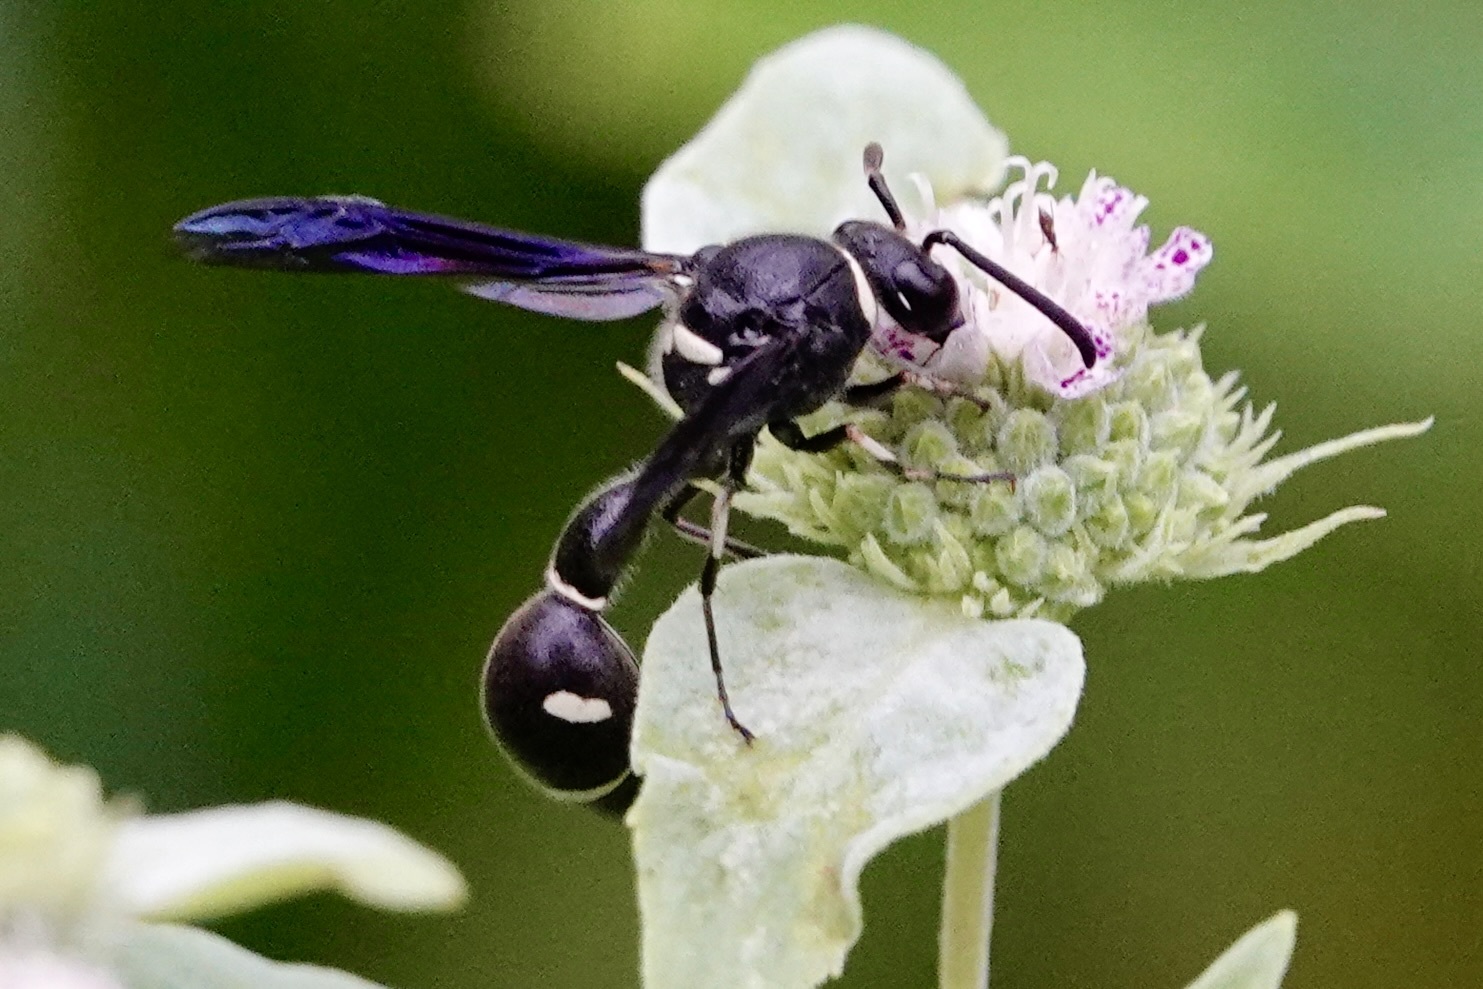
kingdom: Animalia
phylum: Arthropoda
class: Insecta
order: Hymenoptera
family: Vespidae
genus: Eumenes
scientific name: Eumenes fraternus
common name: Fraternal potter wasp
